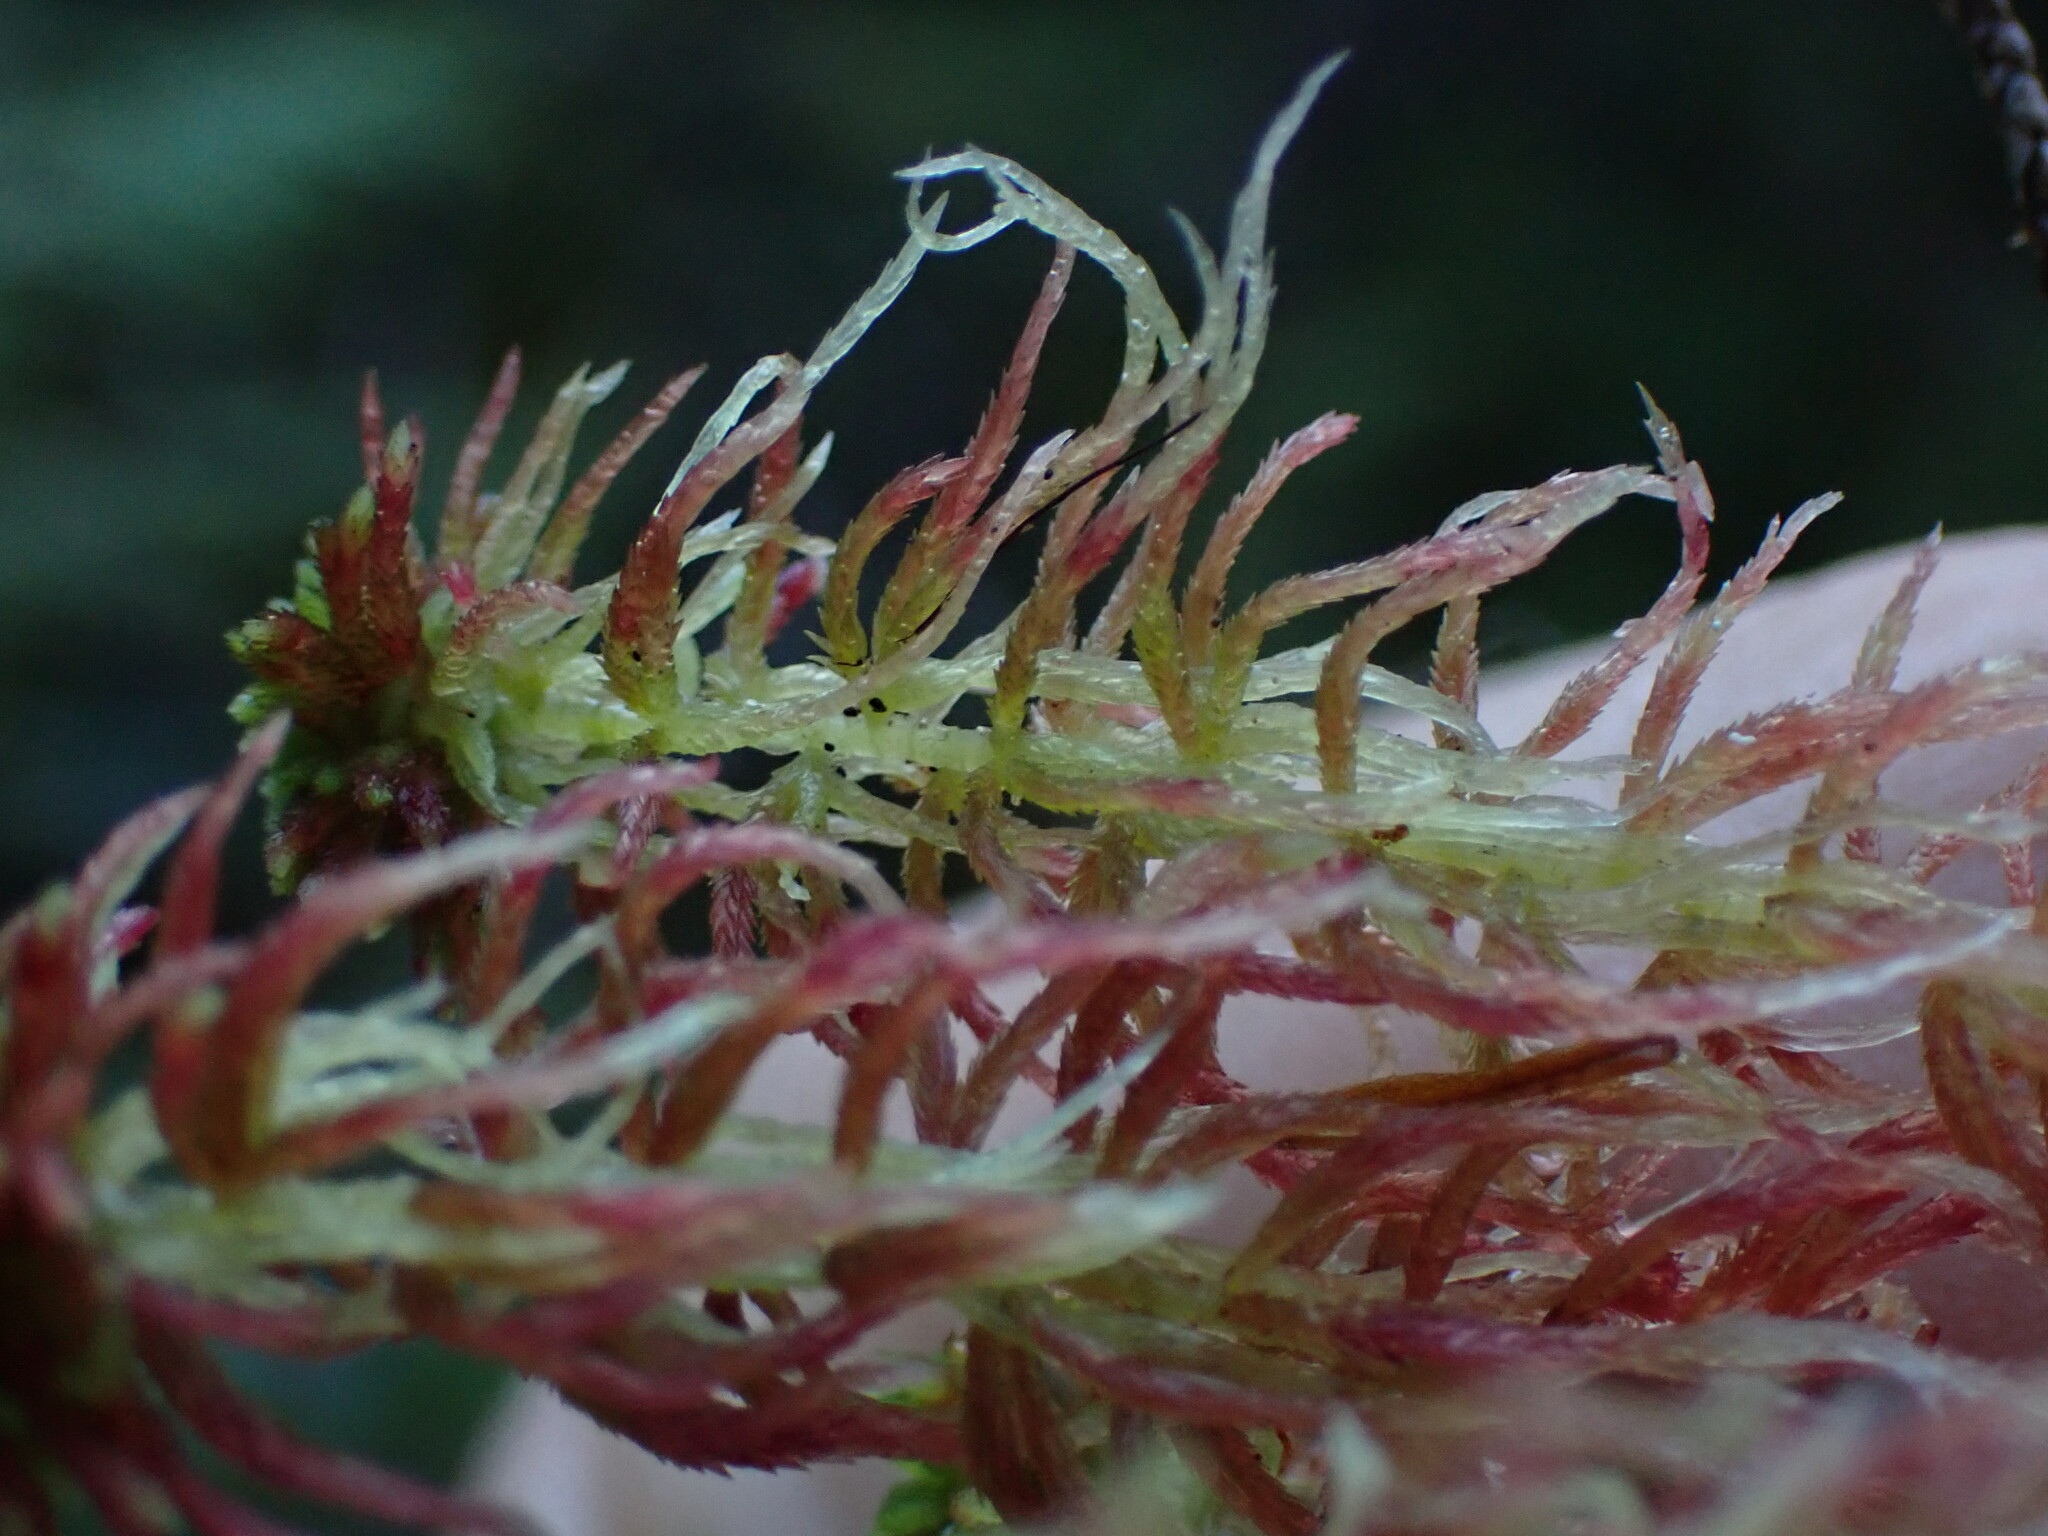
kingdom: Plantae
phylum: Bryophyta
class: Sphagnopsida
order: Sphagnales
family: Sphagnaceae
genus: Sphagnum
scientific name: Sphagnum russowii
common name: Russow's peat moss
